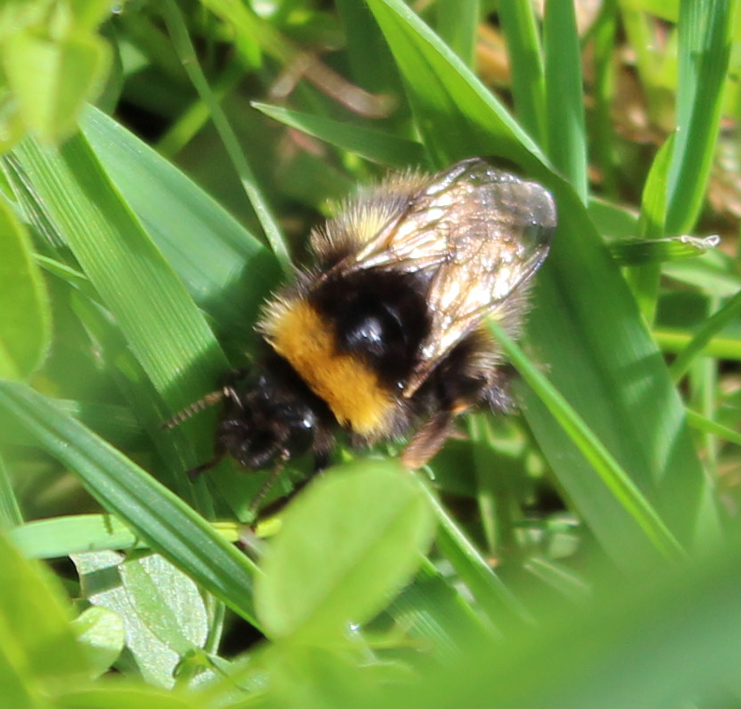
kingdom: Animalia
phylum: Arthropoda
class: Insecta
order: Hymenoptera
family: Apidae
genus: Bombus
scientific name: Bombus pratorum
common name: Early humble-bee
